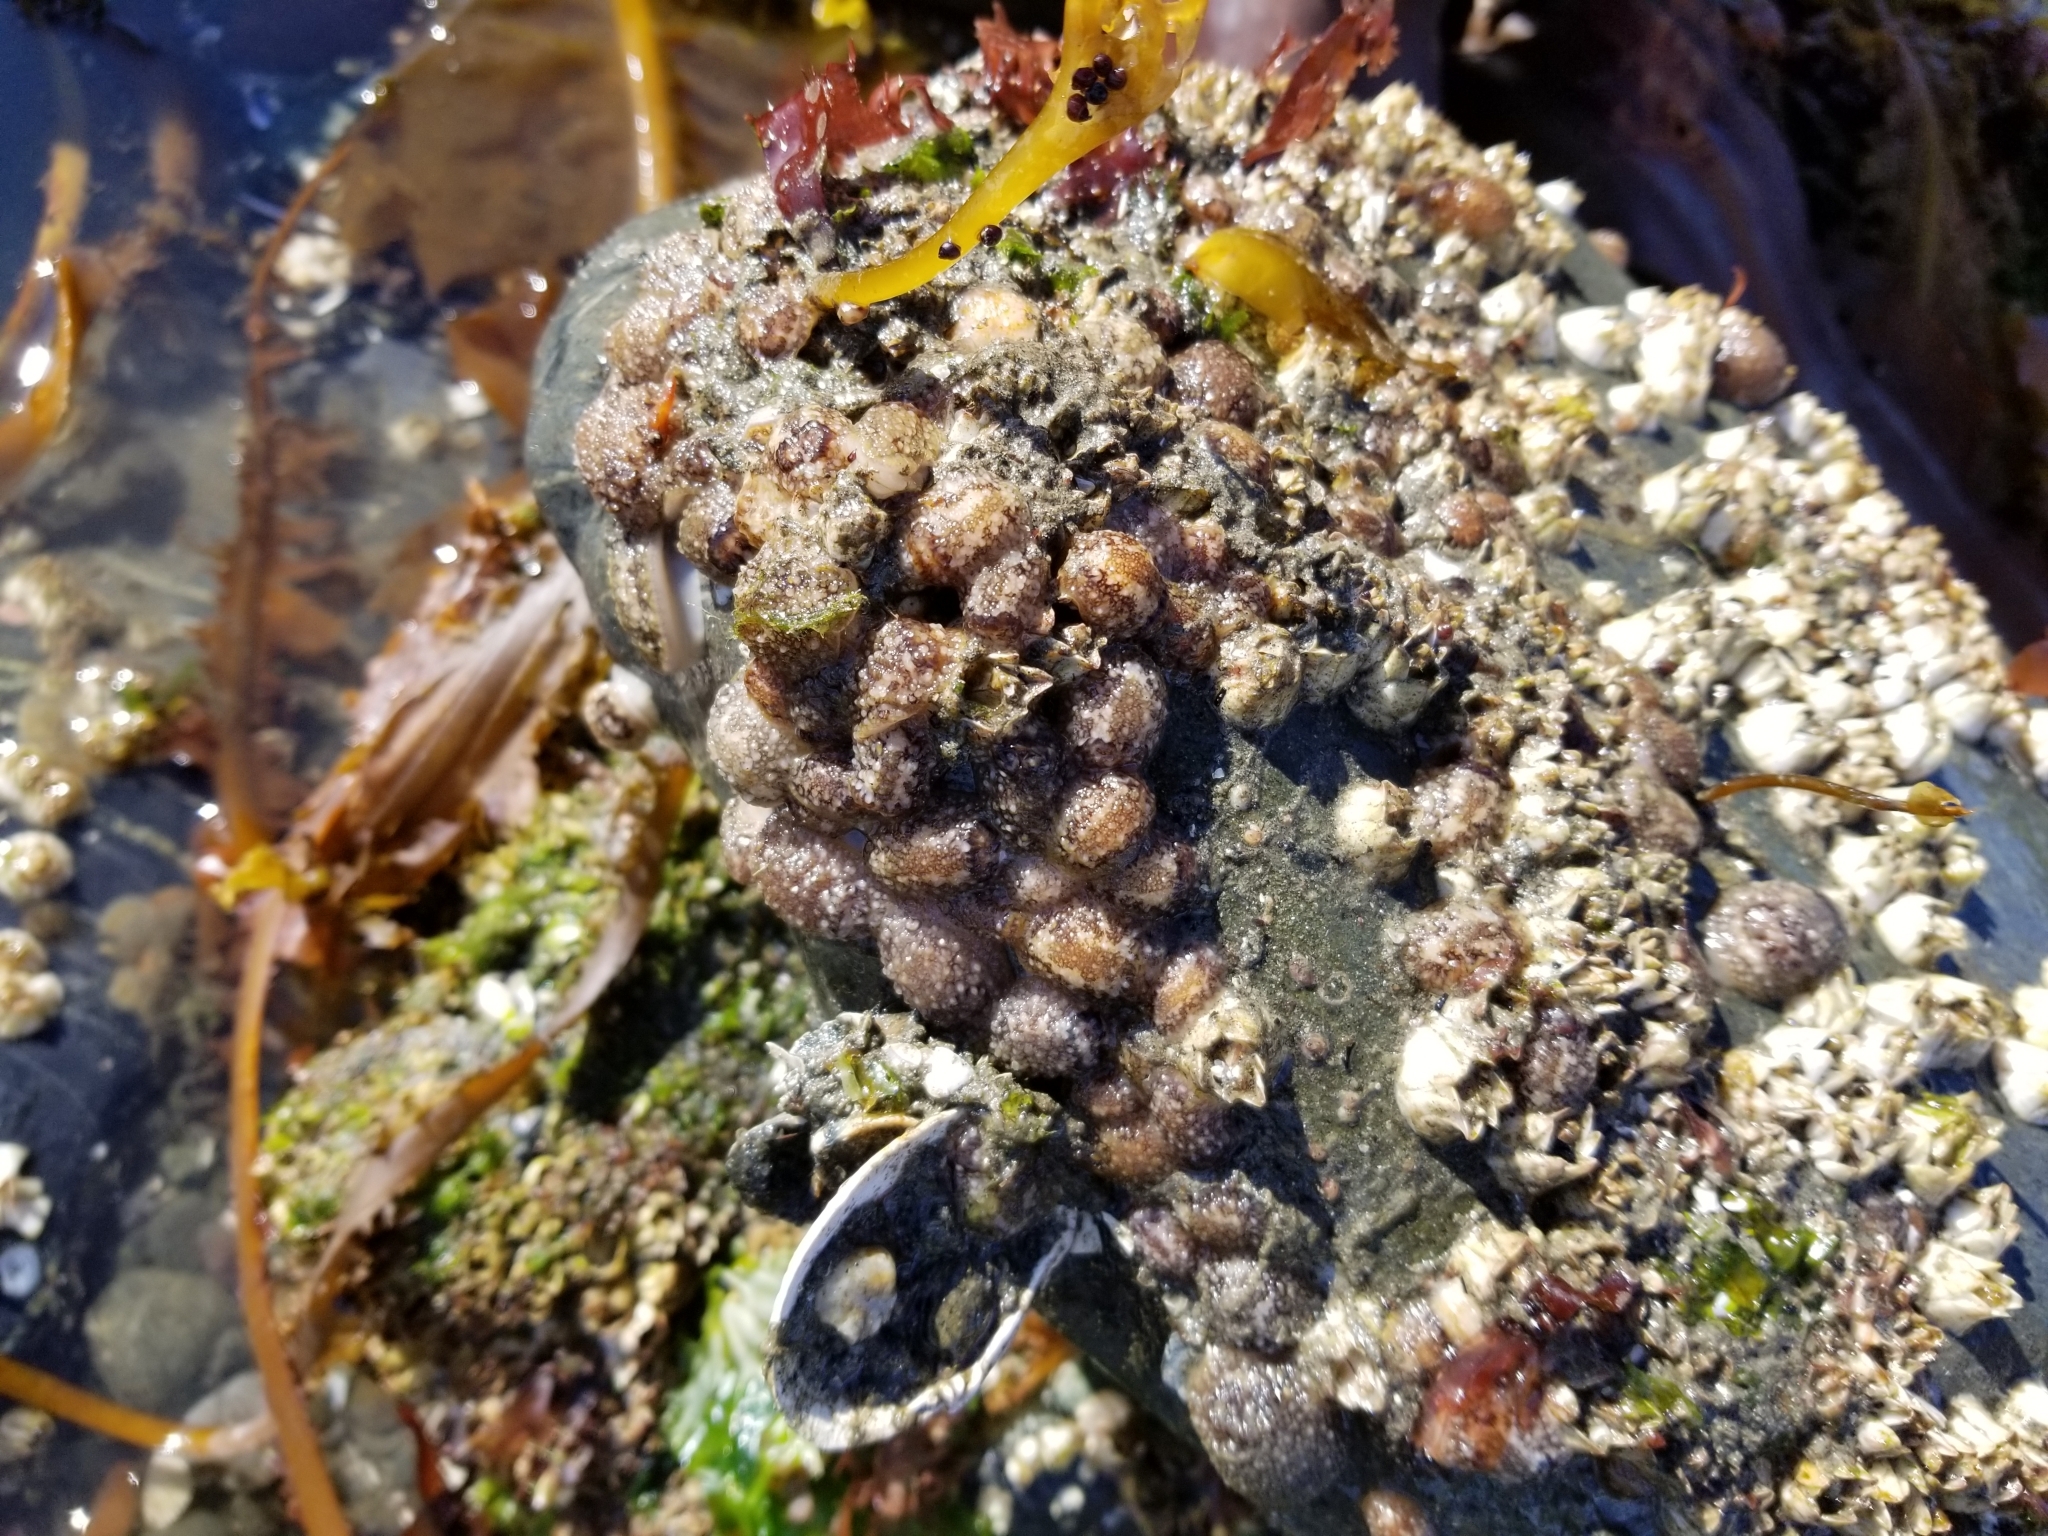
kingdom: Animalia
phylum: Mollusca
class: Gastropoda
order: Nudibranchia
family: Onchidorididae
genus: Onchidoris
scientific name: Onchidoris bilamellata
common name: Barnacle-eating onchidoris
